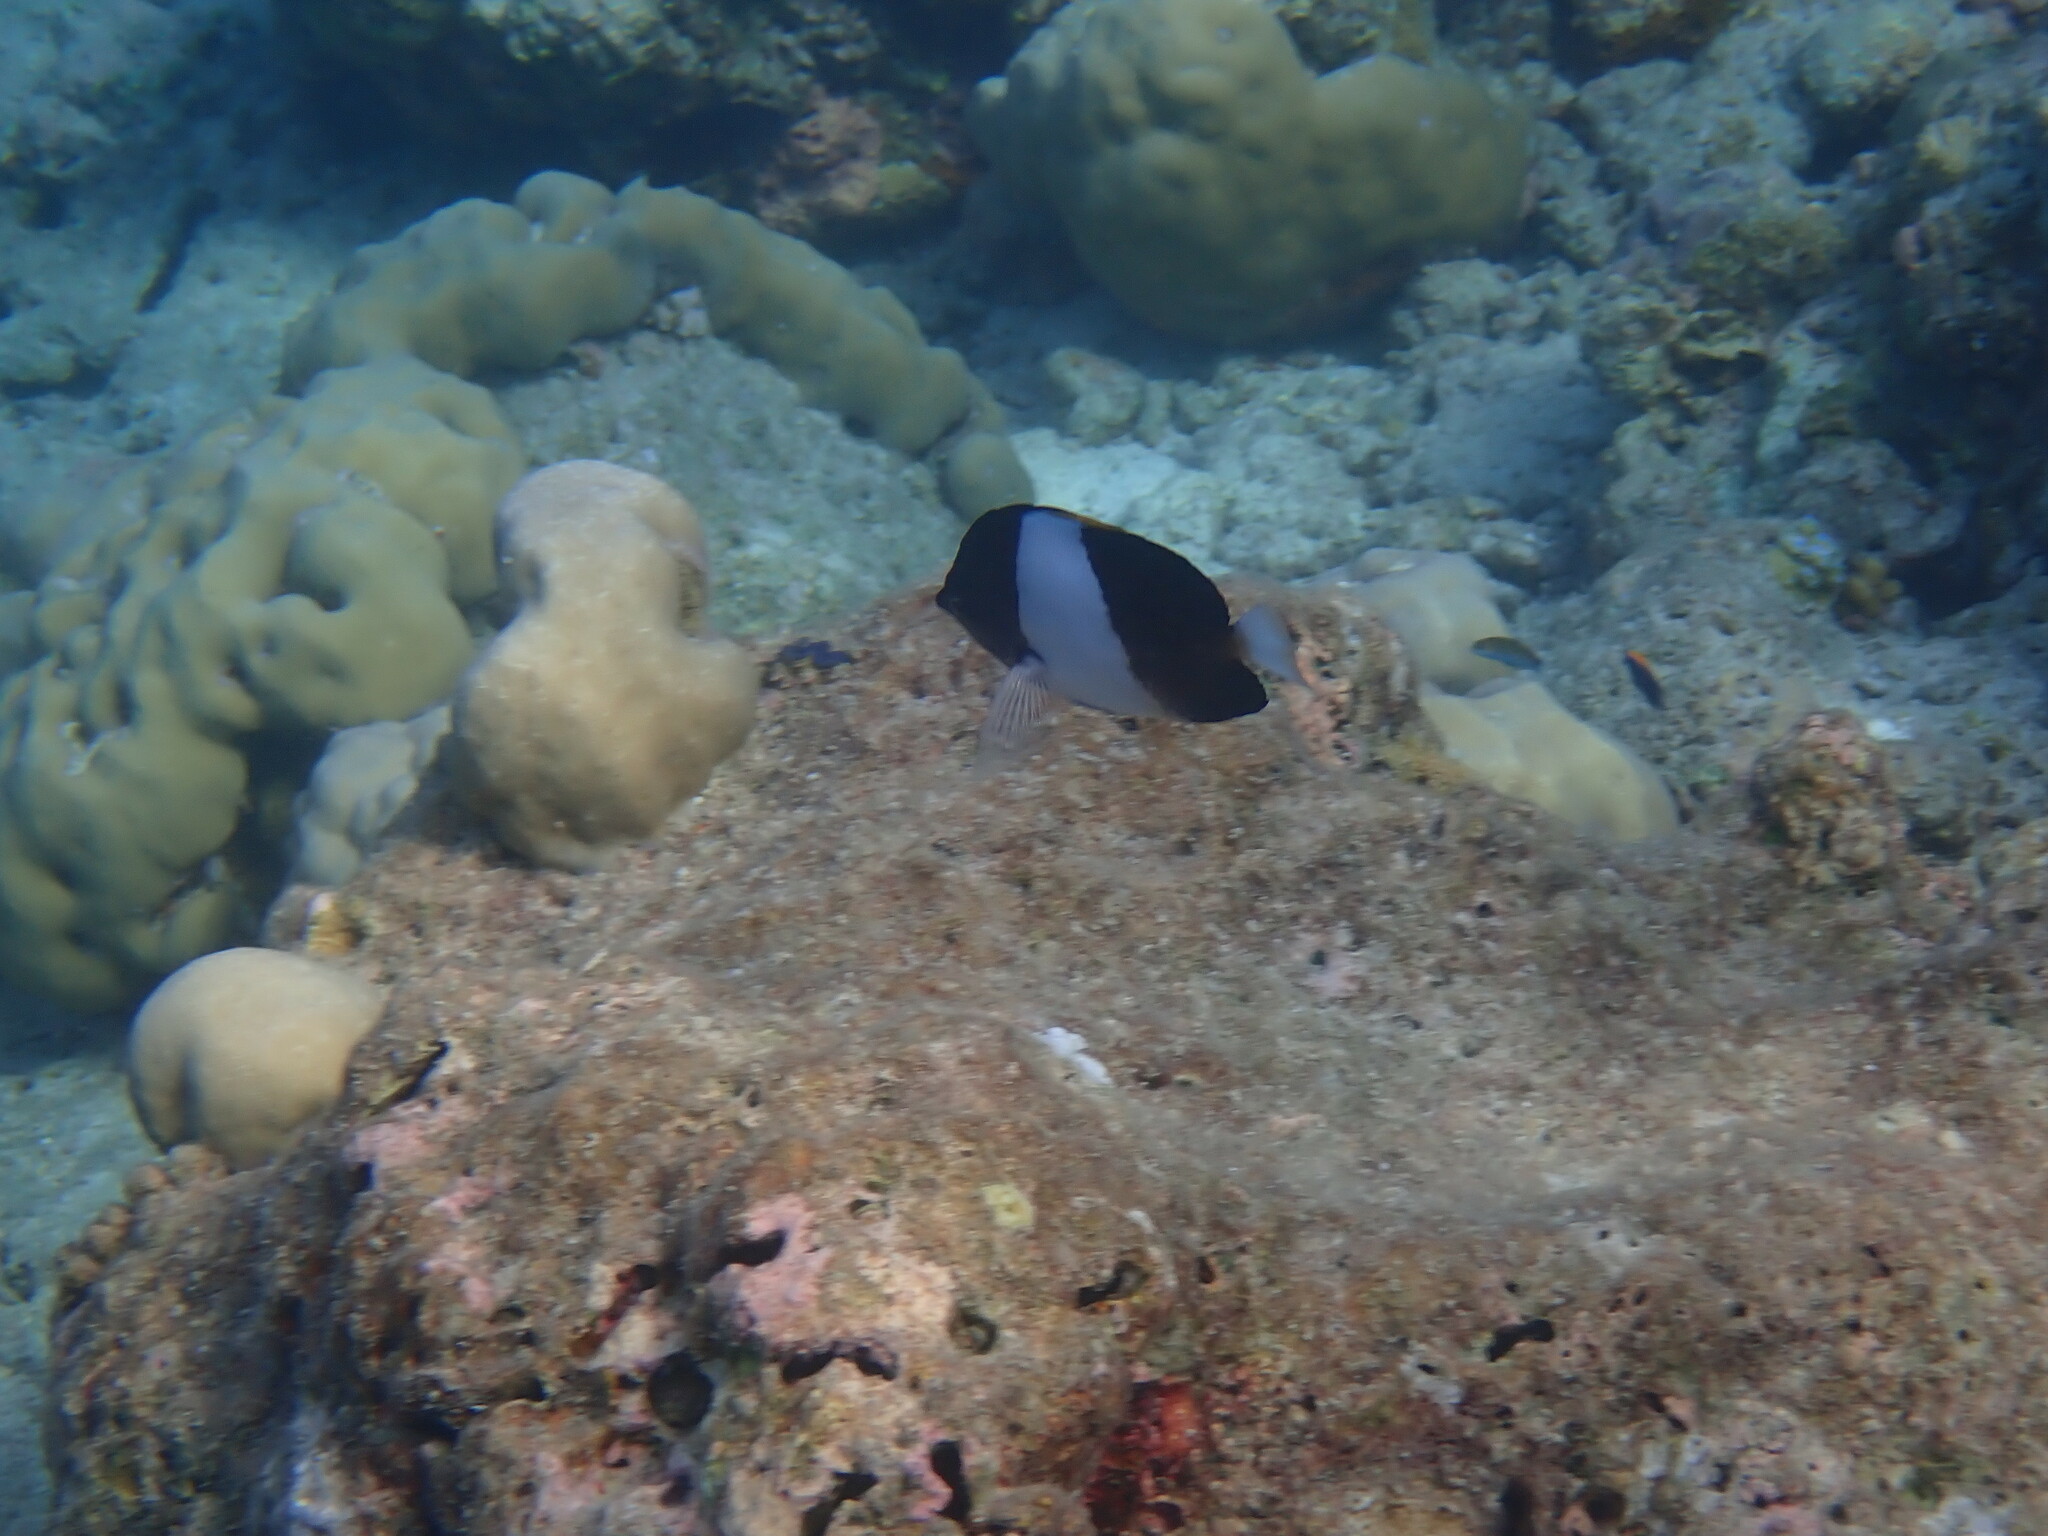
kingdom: Animalia
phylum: Chordata
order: Perciformes
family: Chaetodontidae
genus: Hemitaurichthys
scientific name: Hemitaurichthys zoster
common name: Brown-and-white butterflyfish
